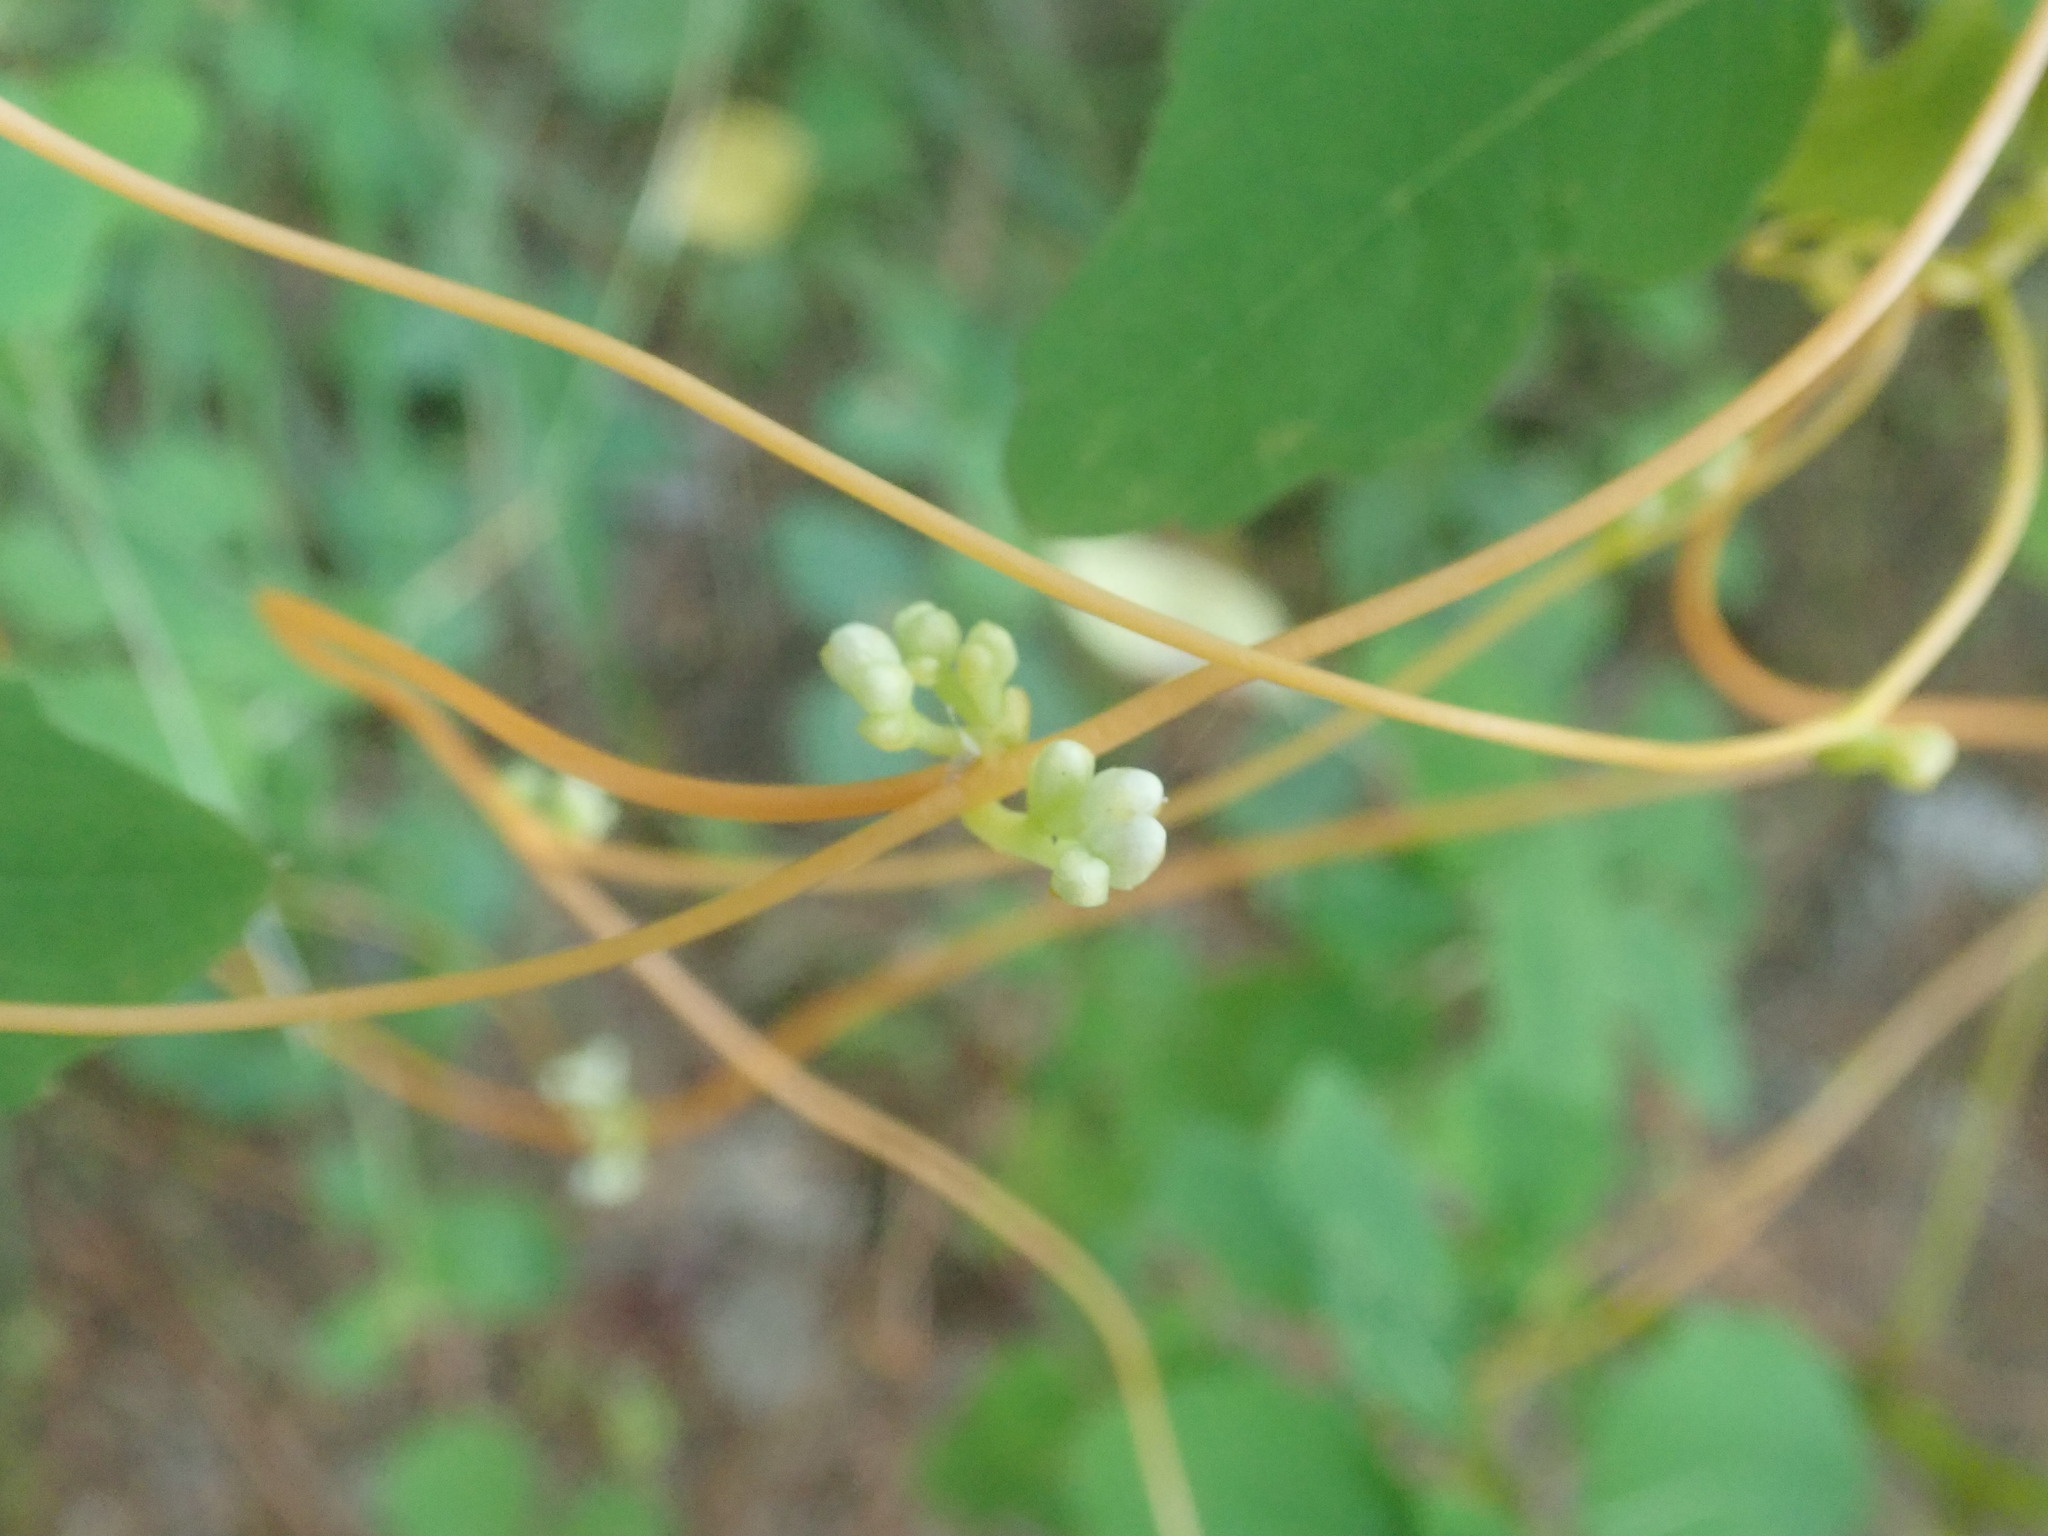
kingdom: Plantae
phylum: Tracheophyta
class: Magnoliopsida
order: Solanales
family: Convolvulaceae
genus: Cuscuta
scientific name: Cuscuta
